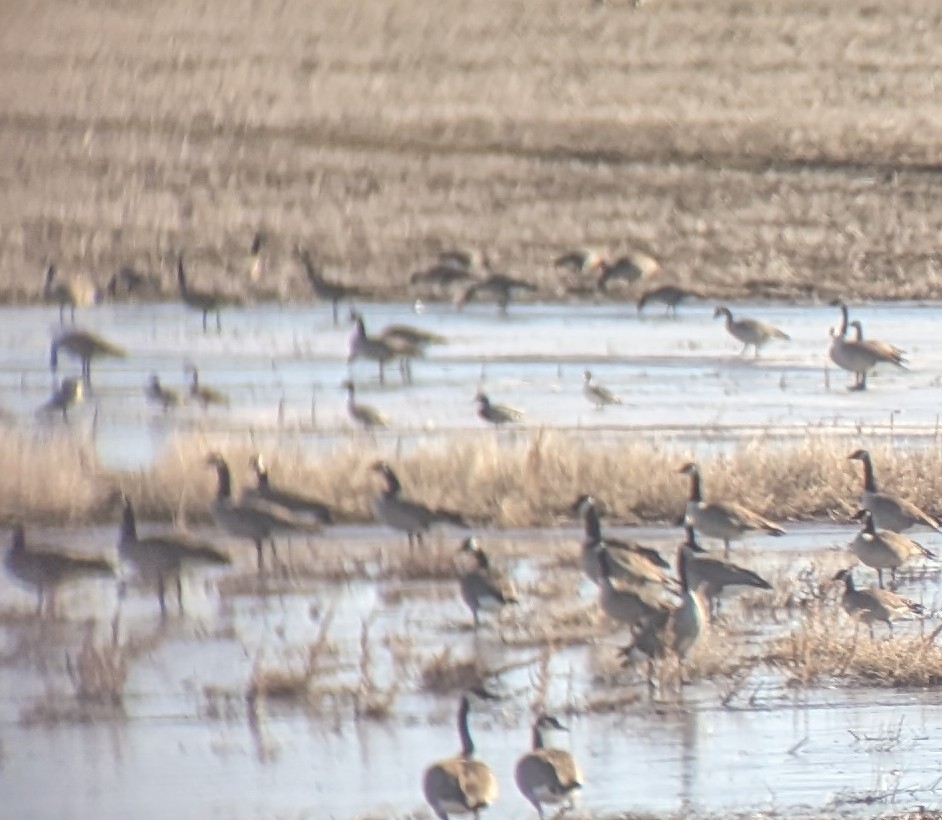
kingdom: Animalia
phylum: Chordata
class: Aves
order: Anseriformes
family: Anatidae
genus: Anas
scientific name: Anas acuta
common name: Northern pintail
